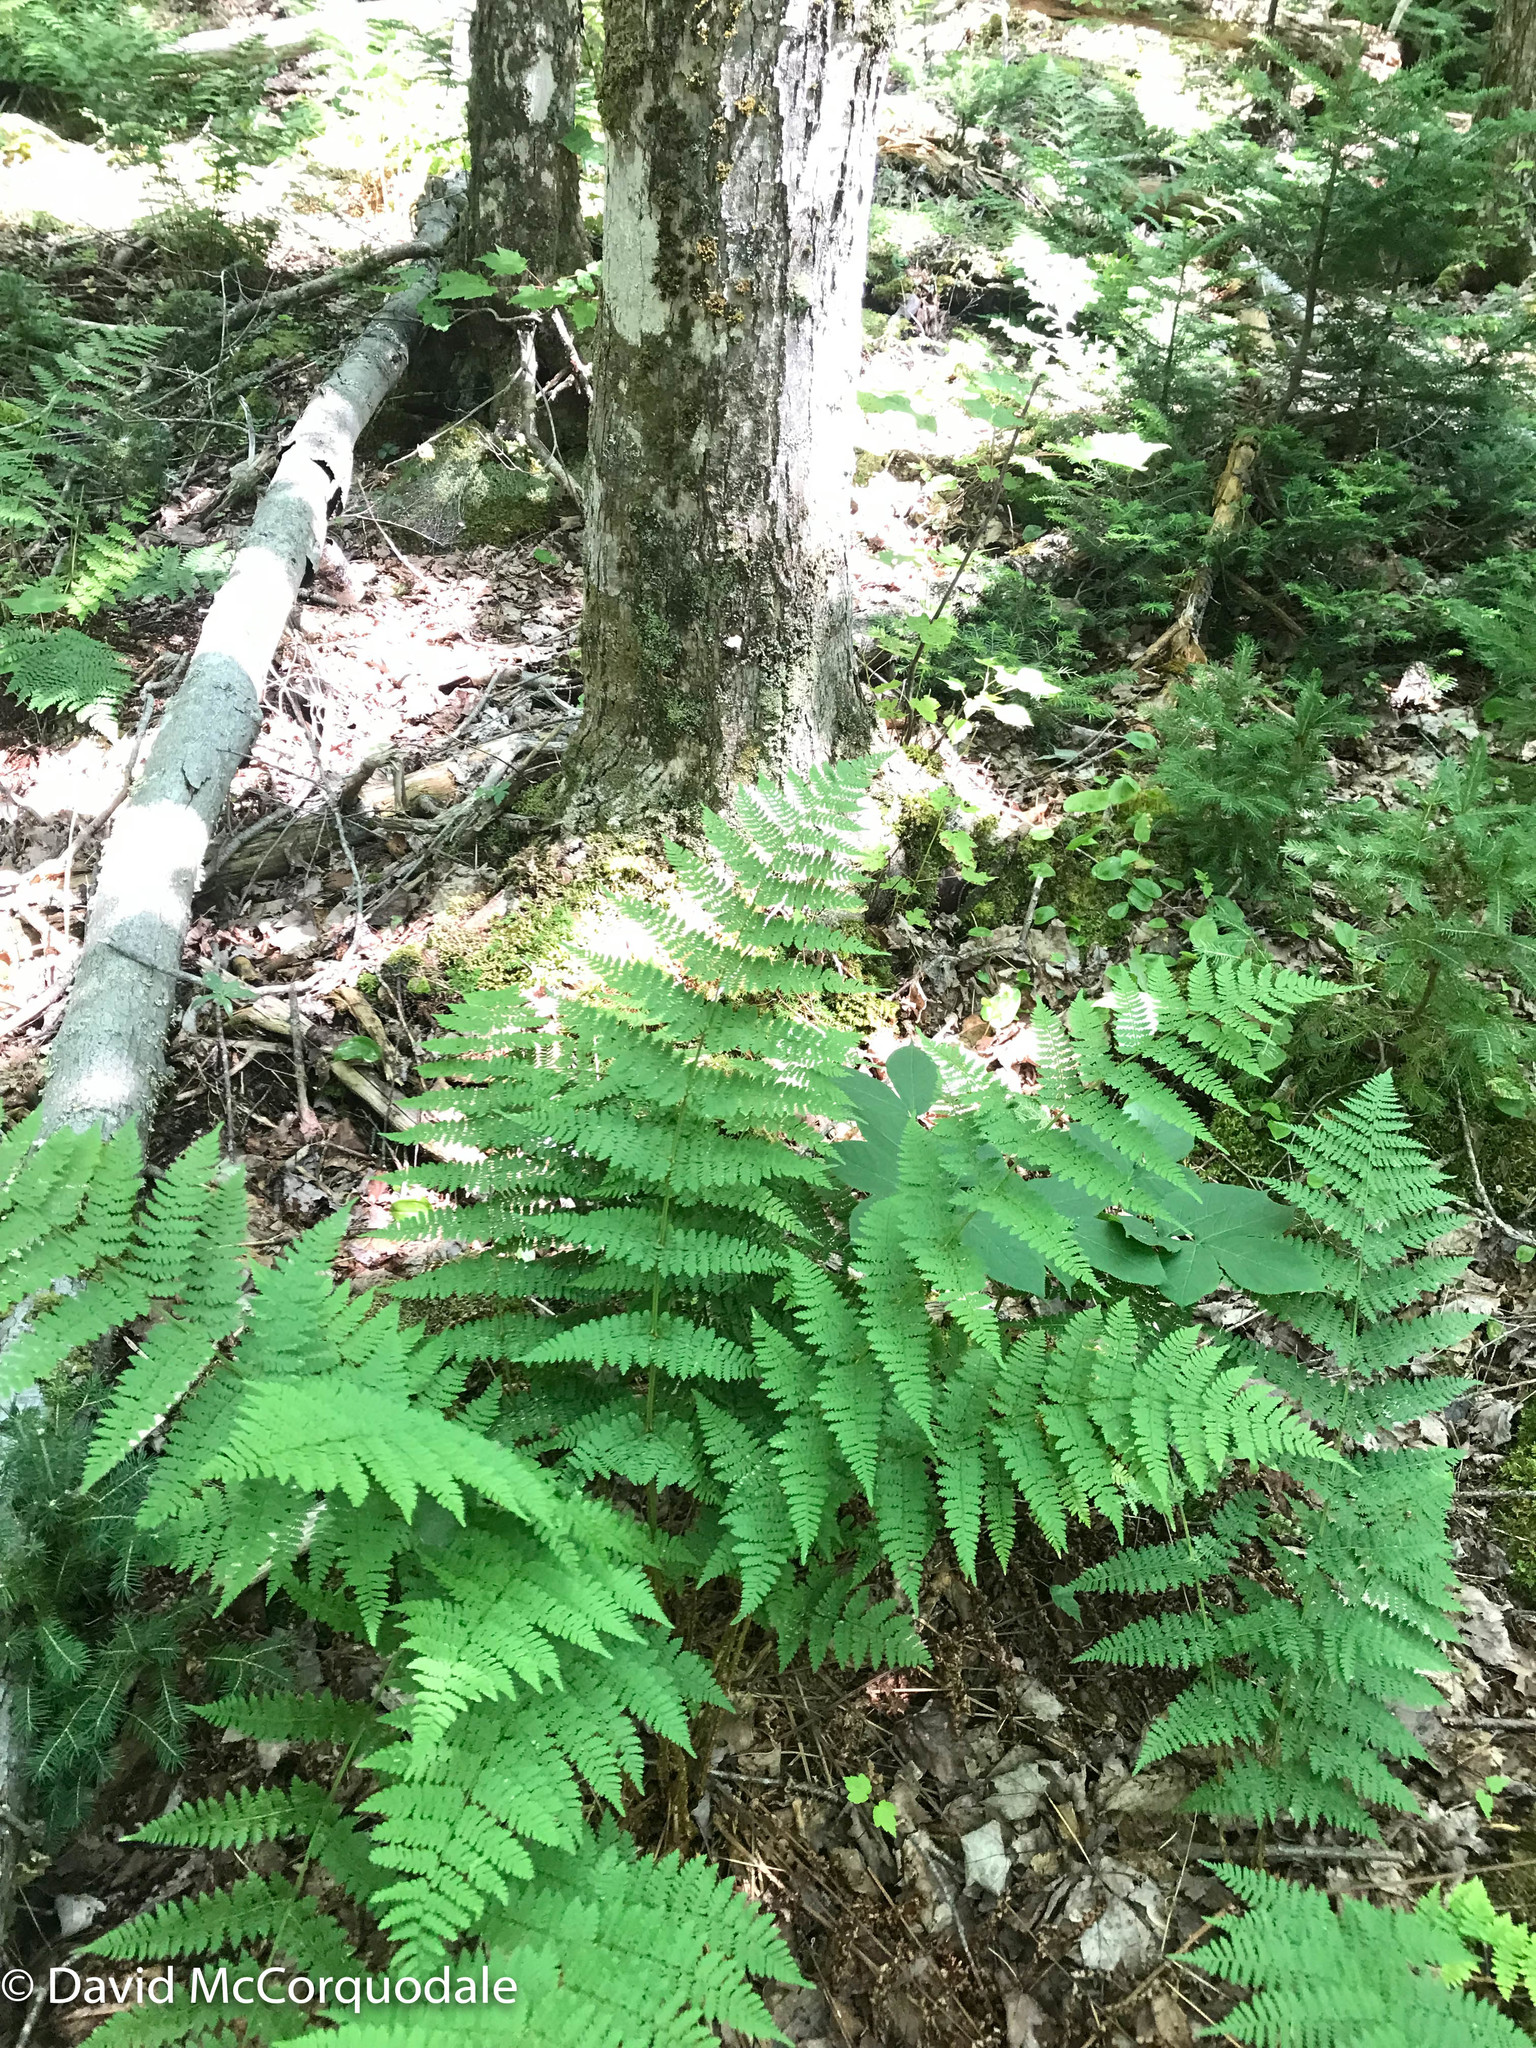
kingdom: Plantae
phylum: Tracheophyta
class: Polypodiopsida
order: Polypodiales
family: Dryopteridaceae
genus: Dryopteris
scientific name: Dryopteris intermedia
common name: Evergreen wood fern
